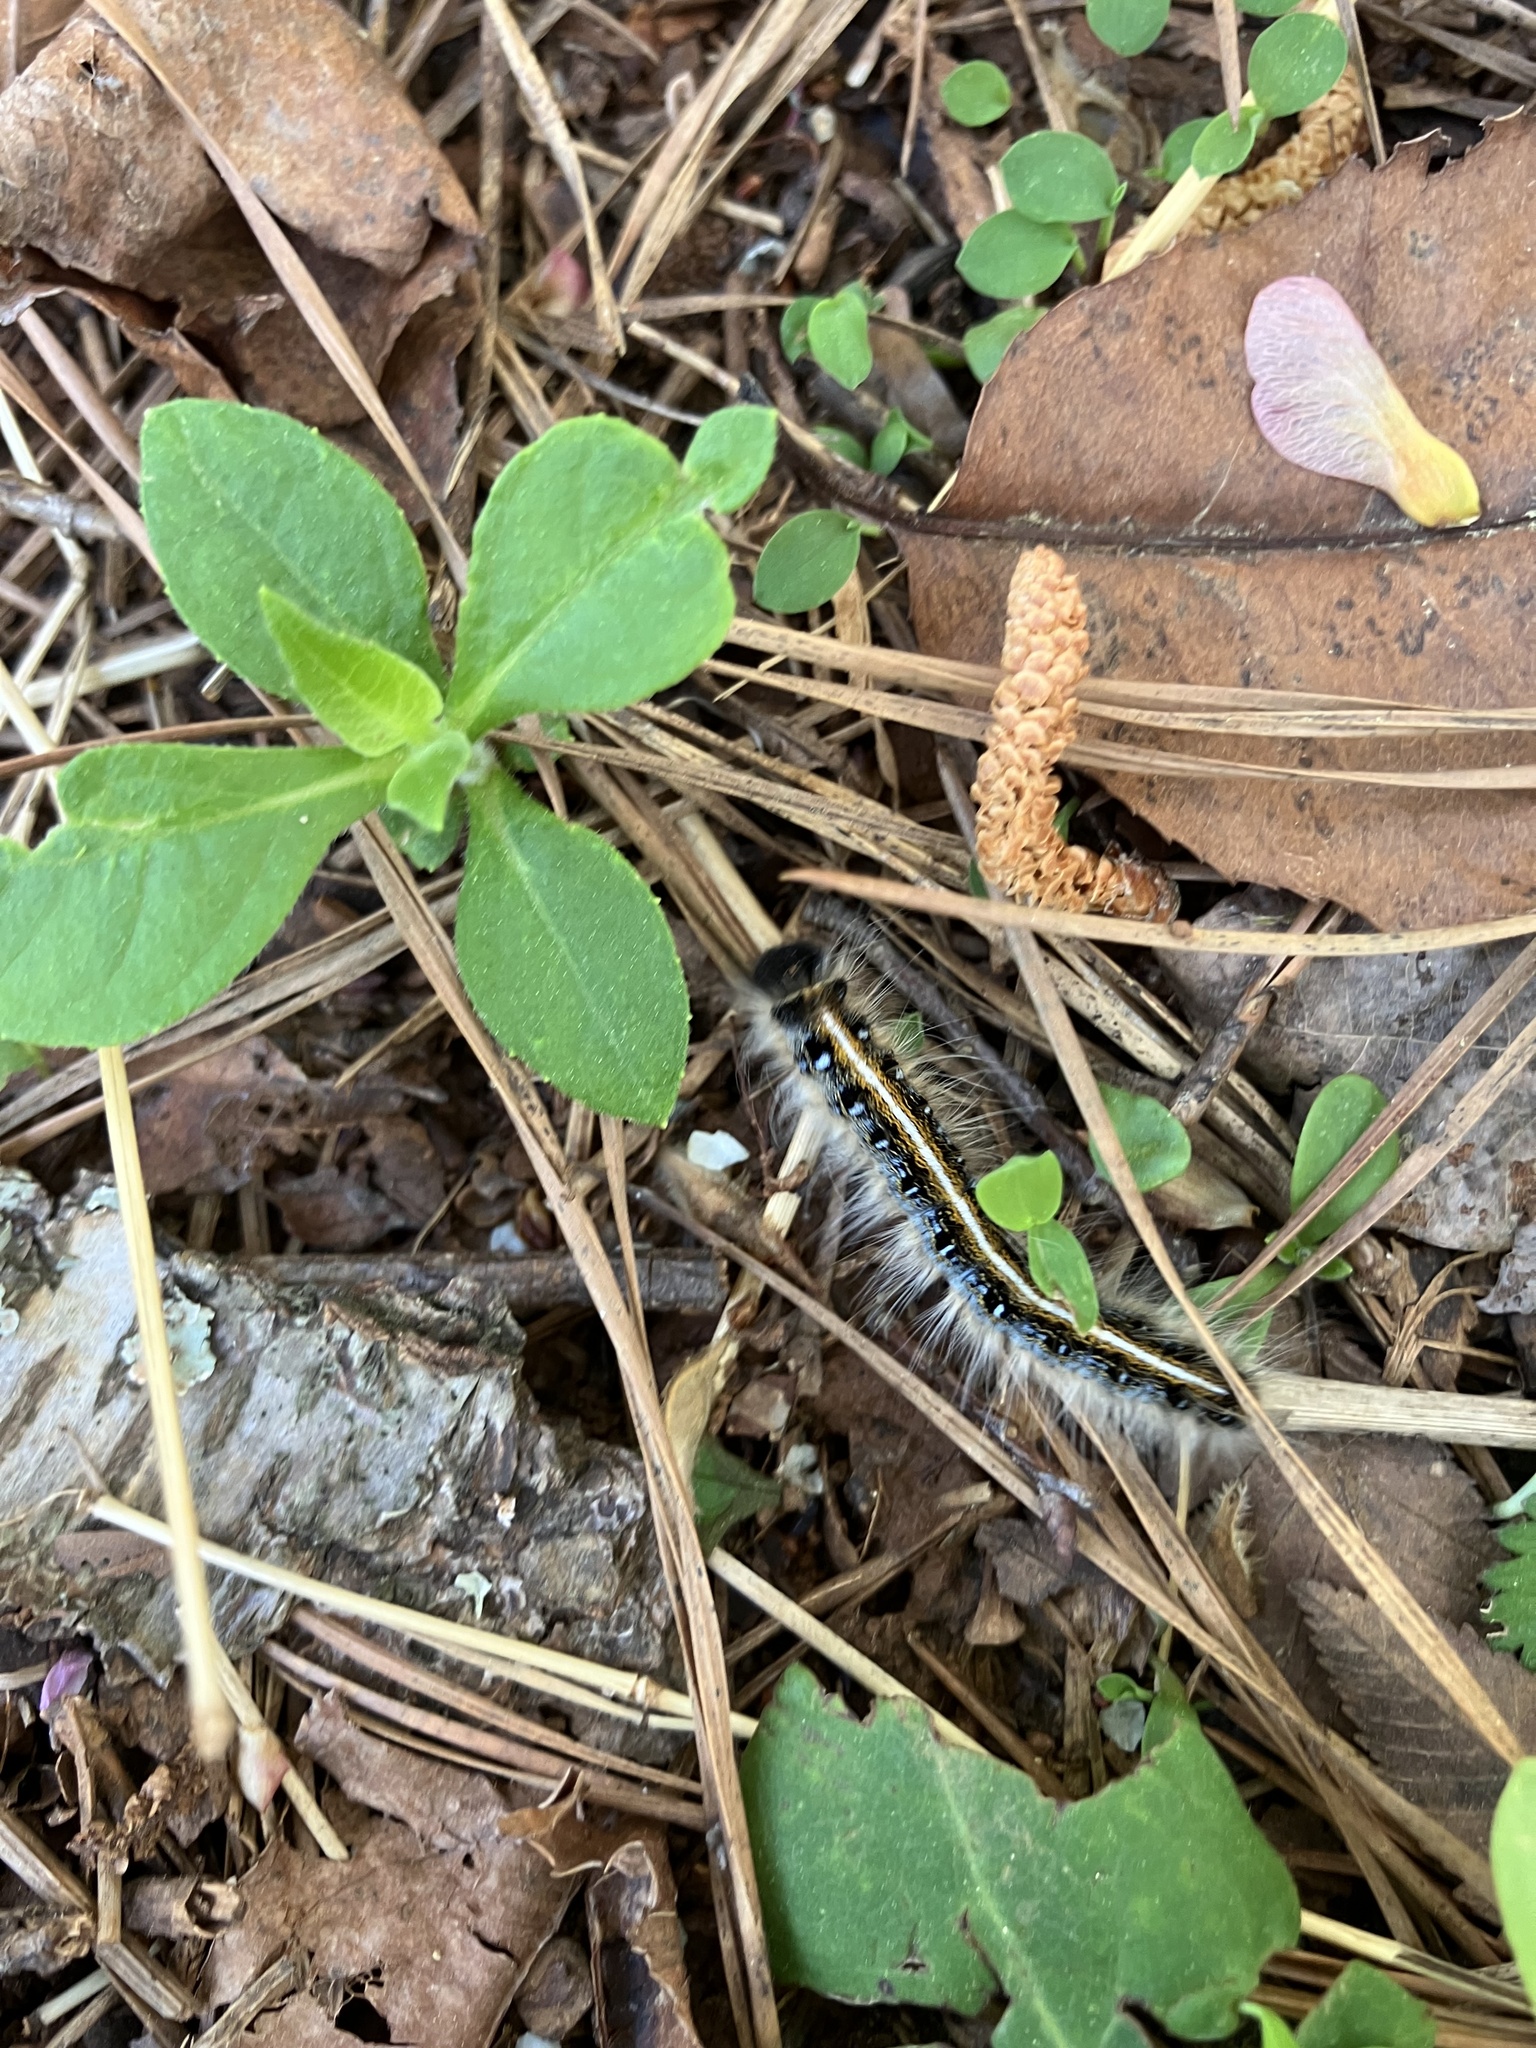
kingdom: Animalia
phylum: Arthropoda
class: Insecta
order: Lepidoptera
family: Lasiocampidae
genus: Malacosoma
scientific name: Malacosoma americana
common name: Eastern tent caterpillar moth
